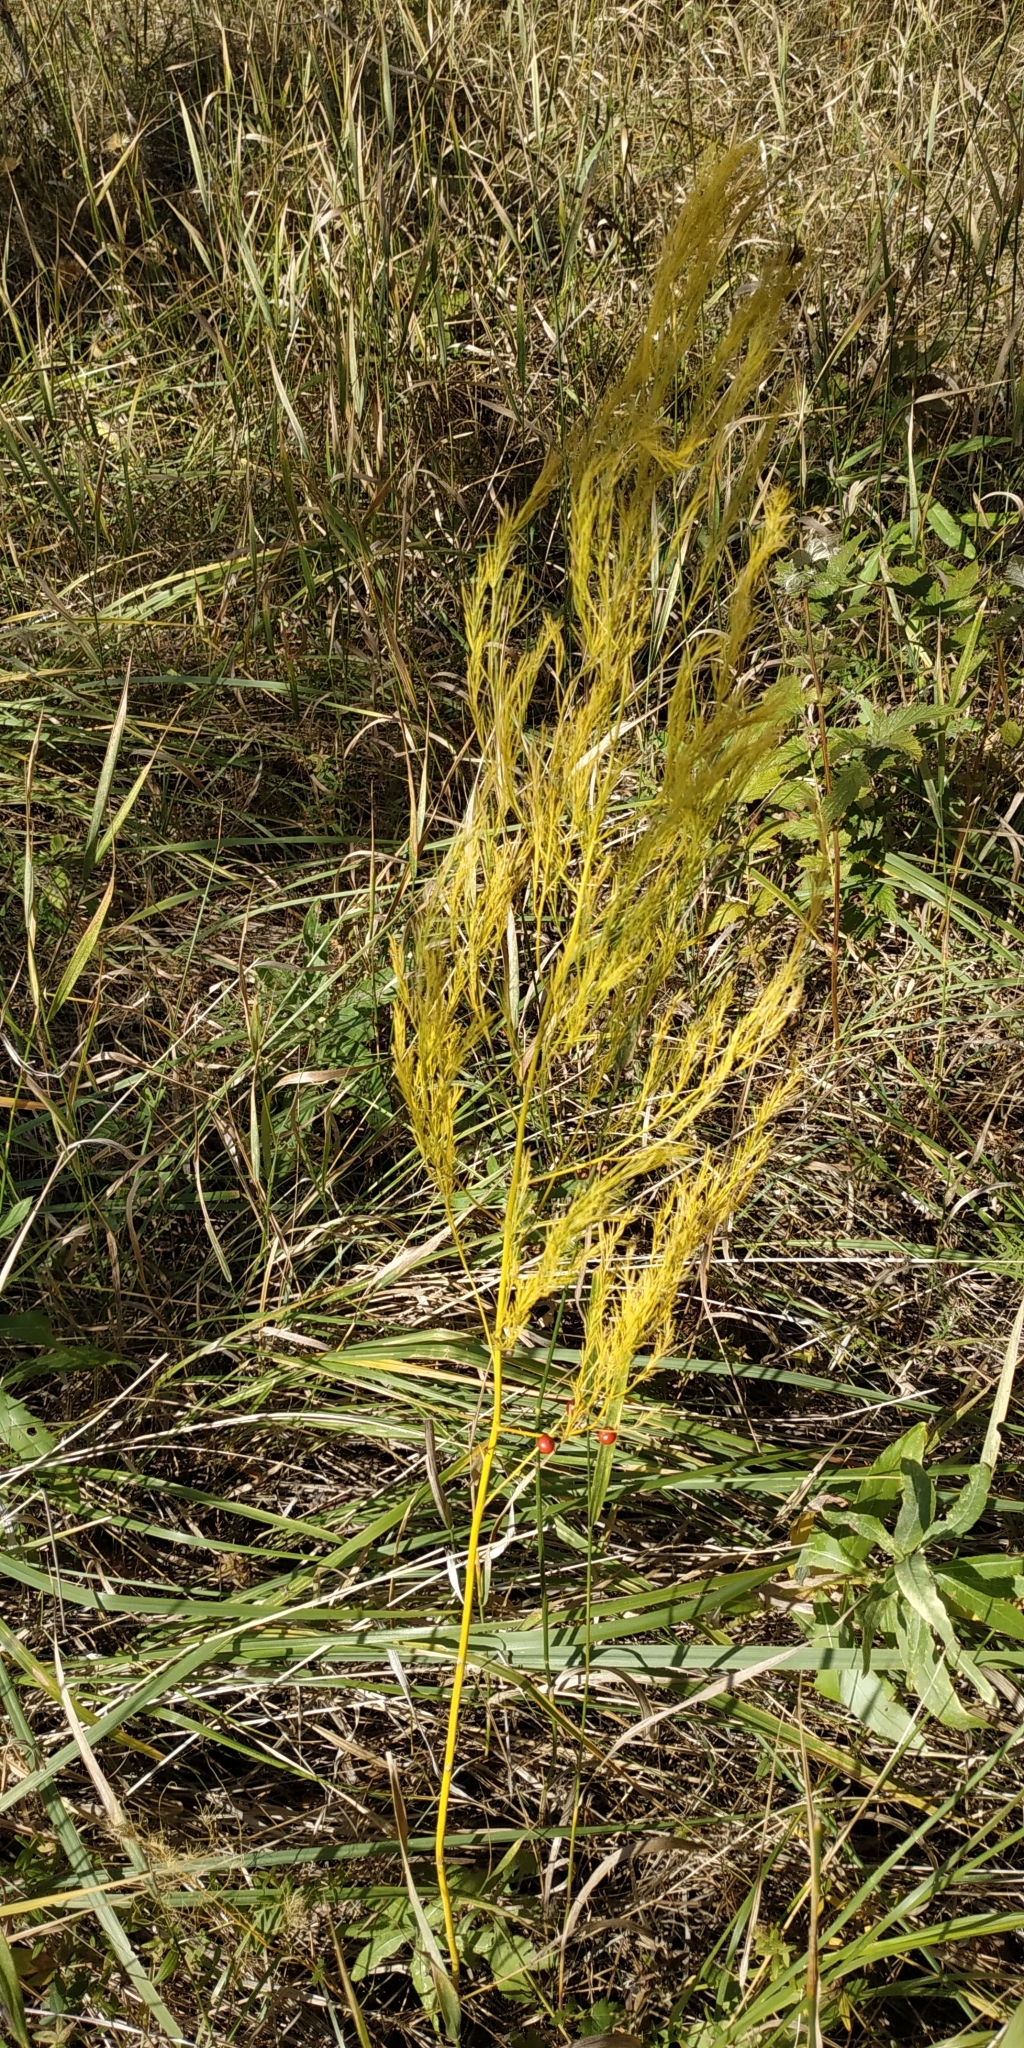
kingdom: Plantae
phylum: Tracheophyta
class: Liliopsida
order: Asparagales
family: Asparagaceae
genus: Asparagus
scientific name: Asparagus officinalis
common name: Garden asparagus
